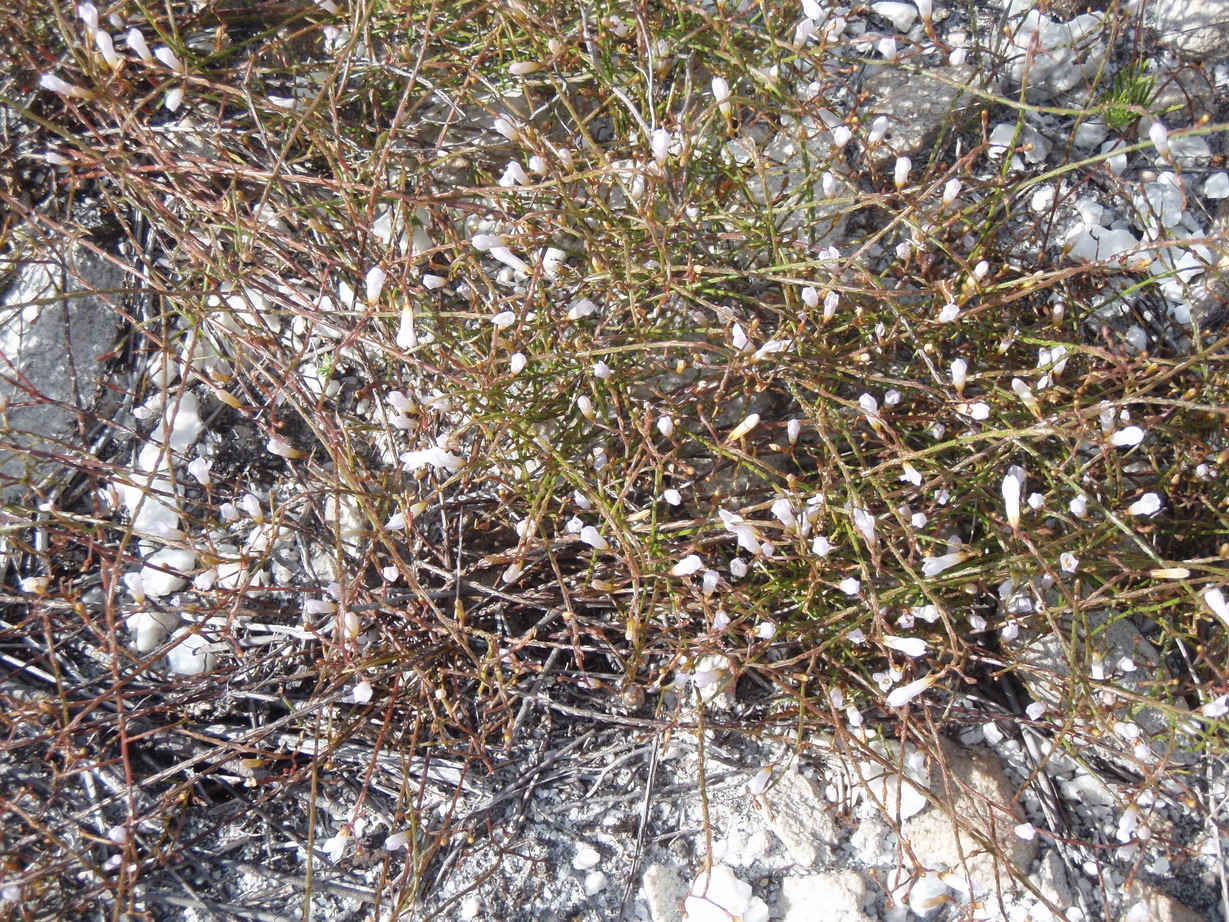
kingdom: Plantae
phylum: Tracheophyta
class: Magnoliopsida
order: Asterales
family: Campanulaceae
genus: Siphocodon
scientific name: Siphocodon debilis
